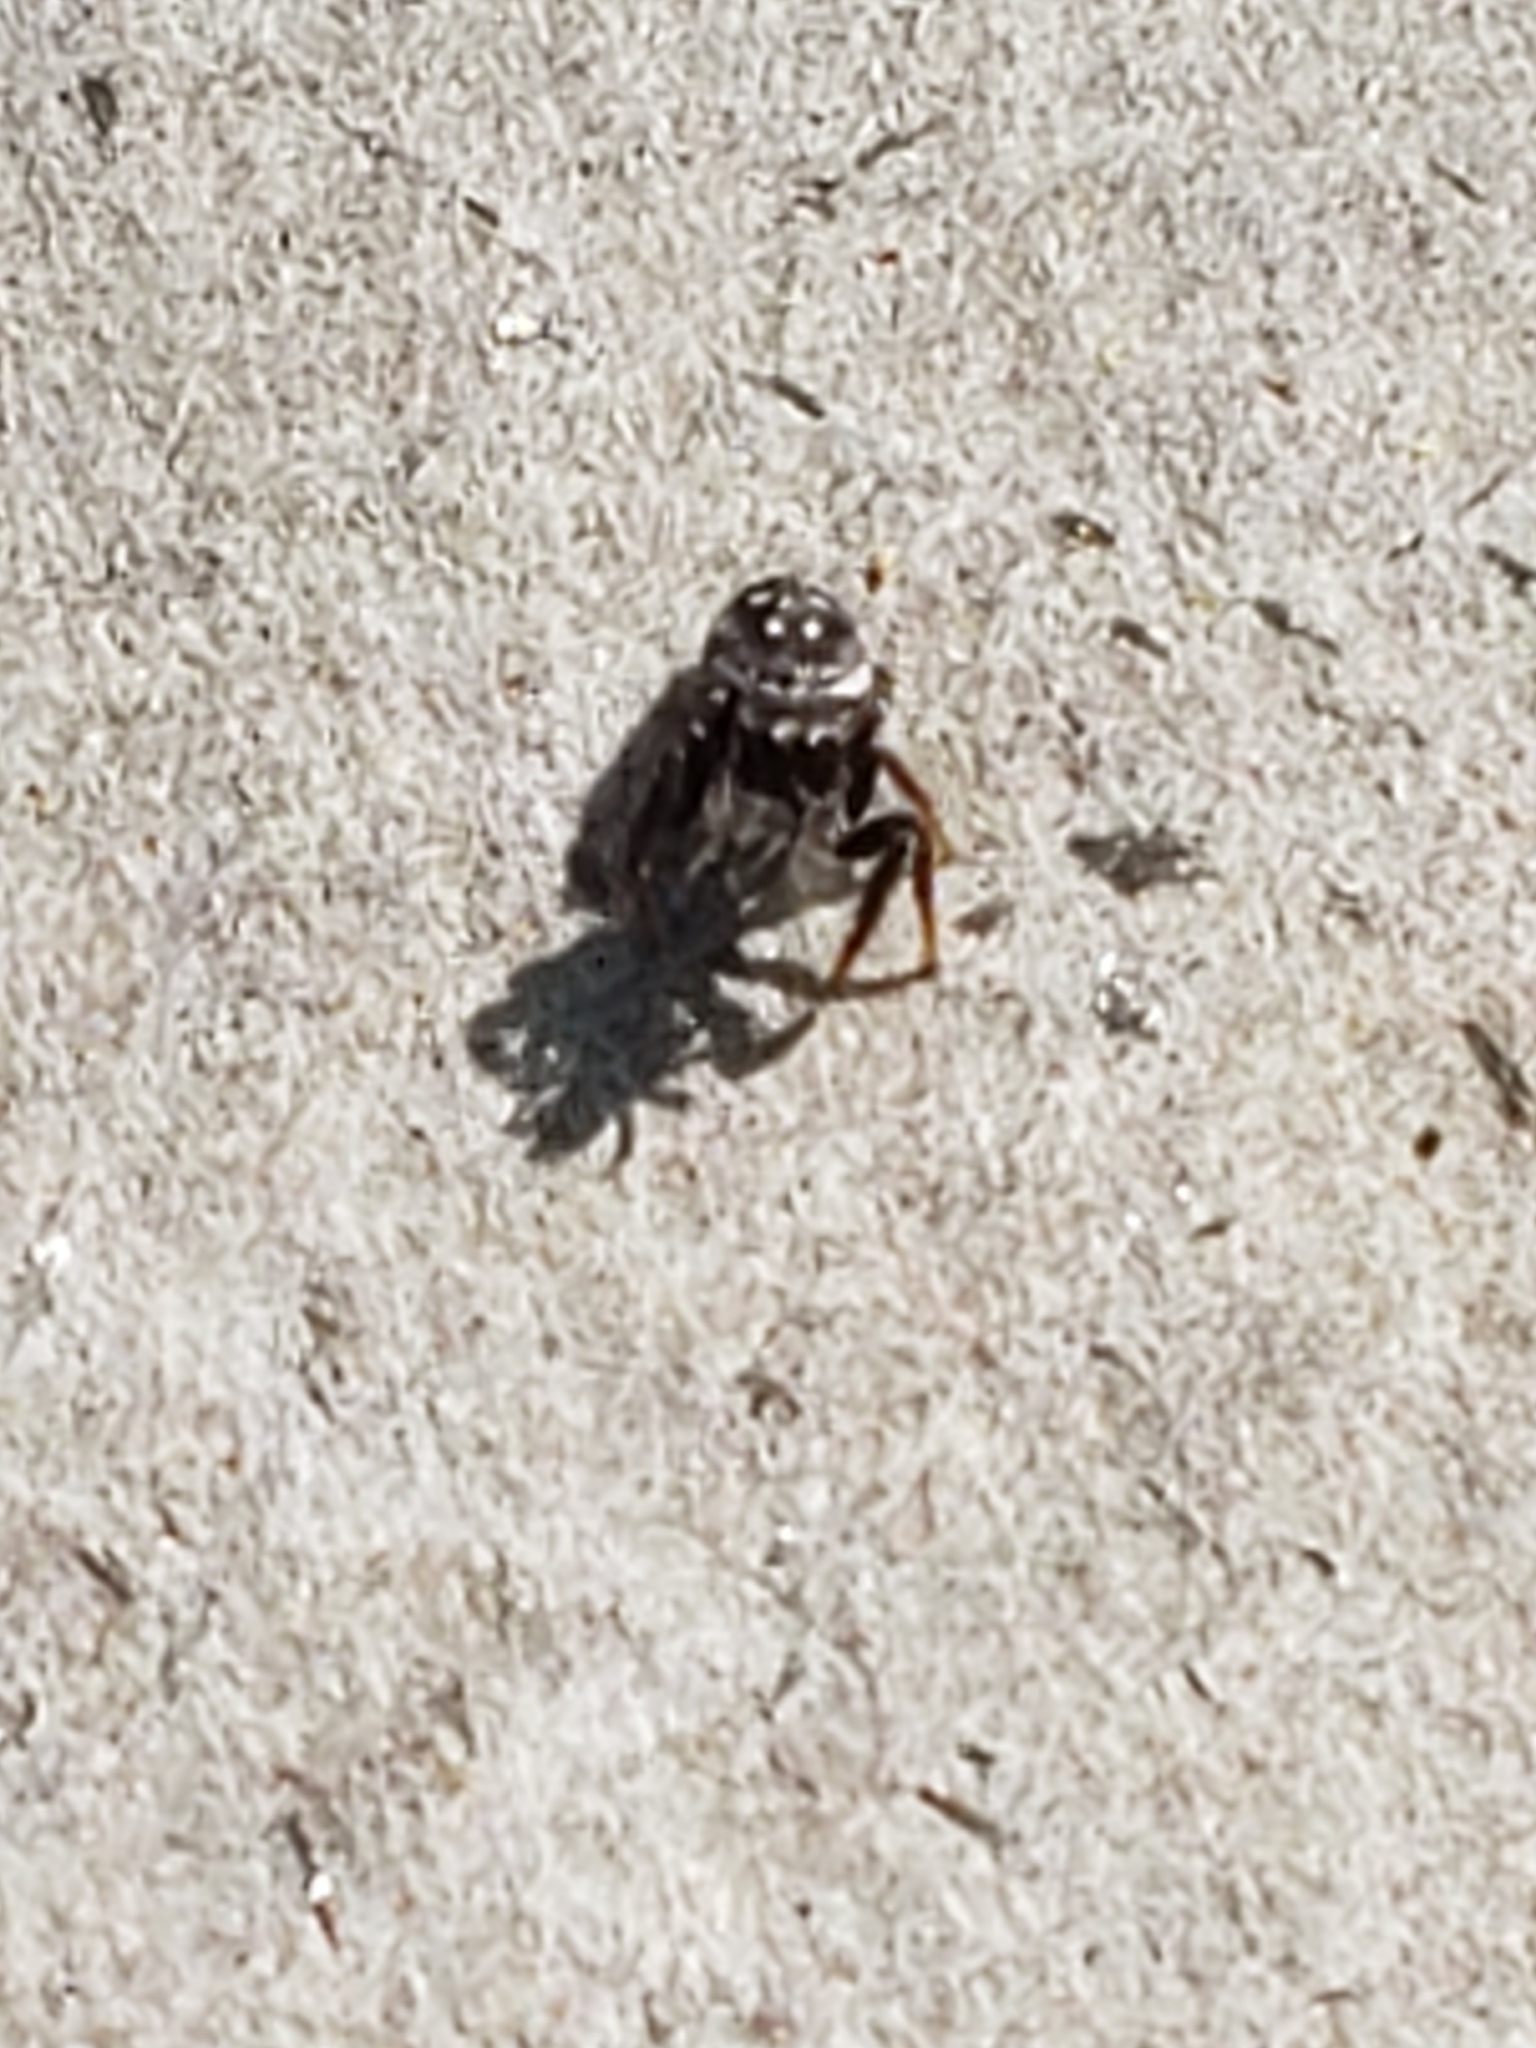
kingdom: Animalia
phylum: Arthropoda
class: Arachnida
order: Araneae
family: Salticidae
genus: Paraphidippus
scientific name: Paraphidippus aurantius
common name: Jumping spiders
